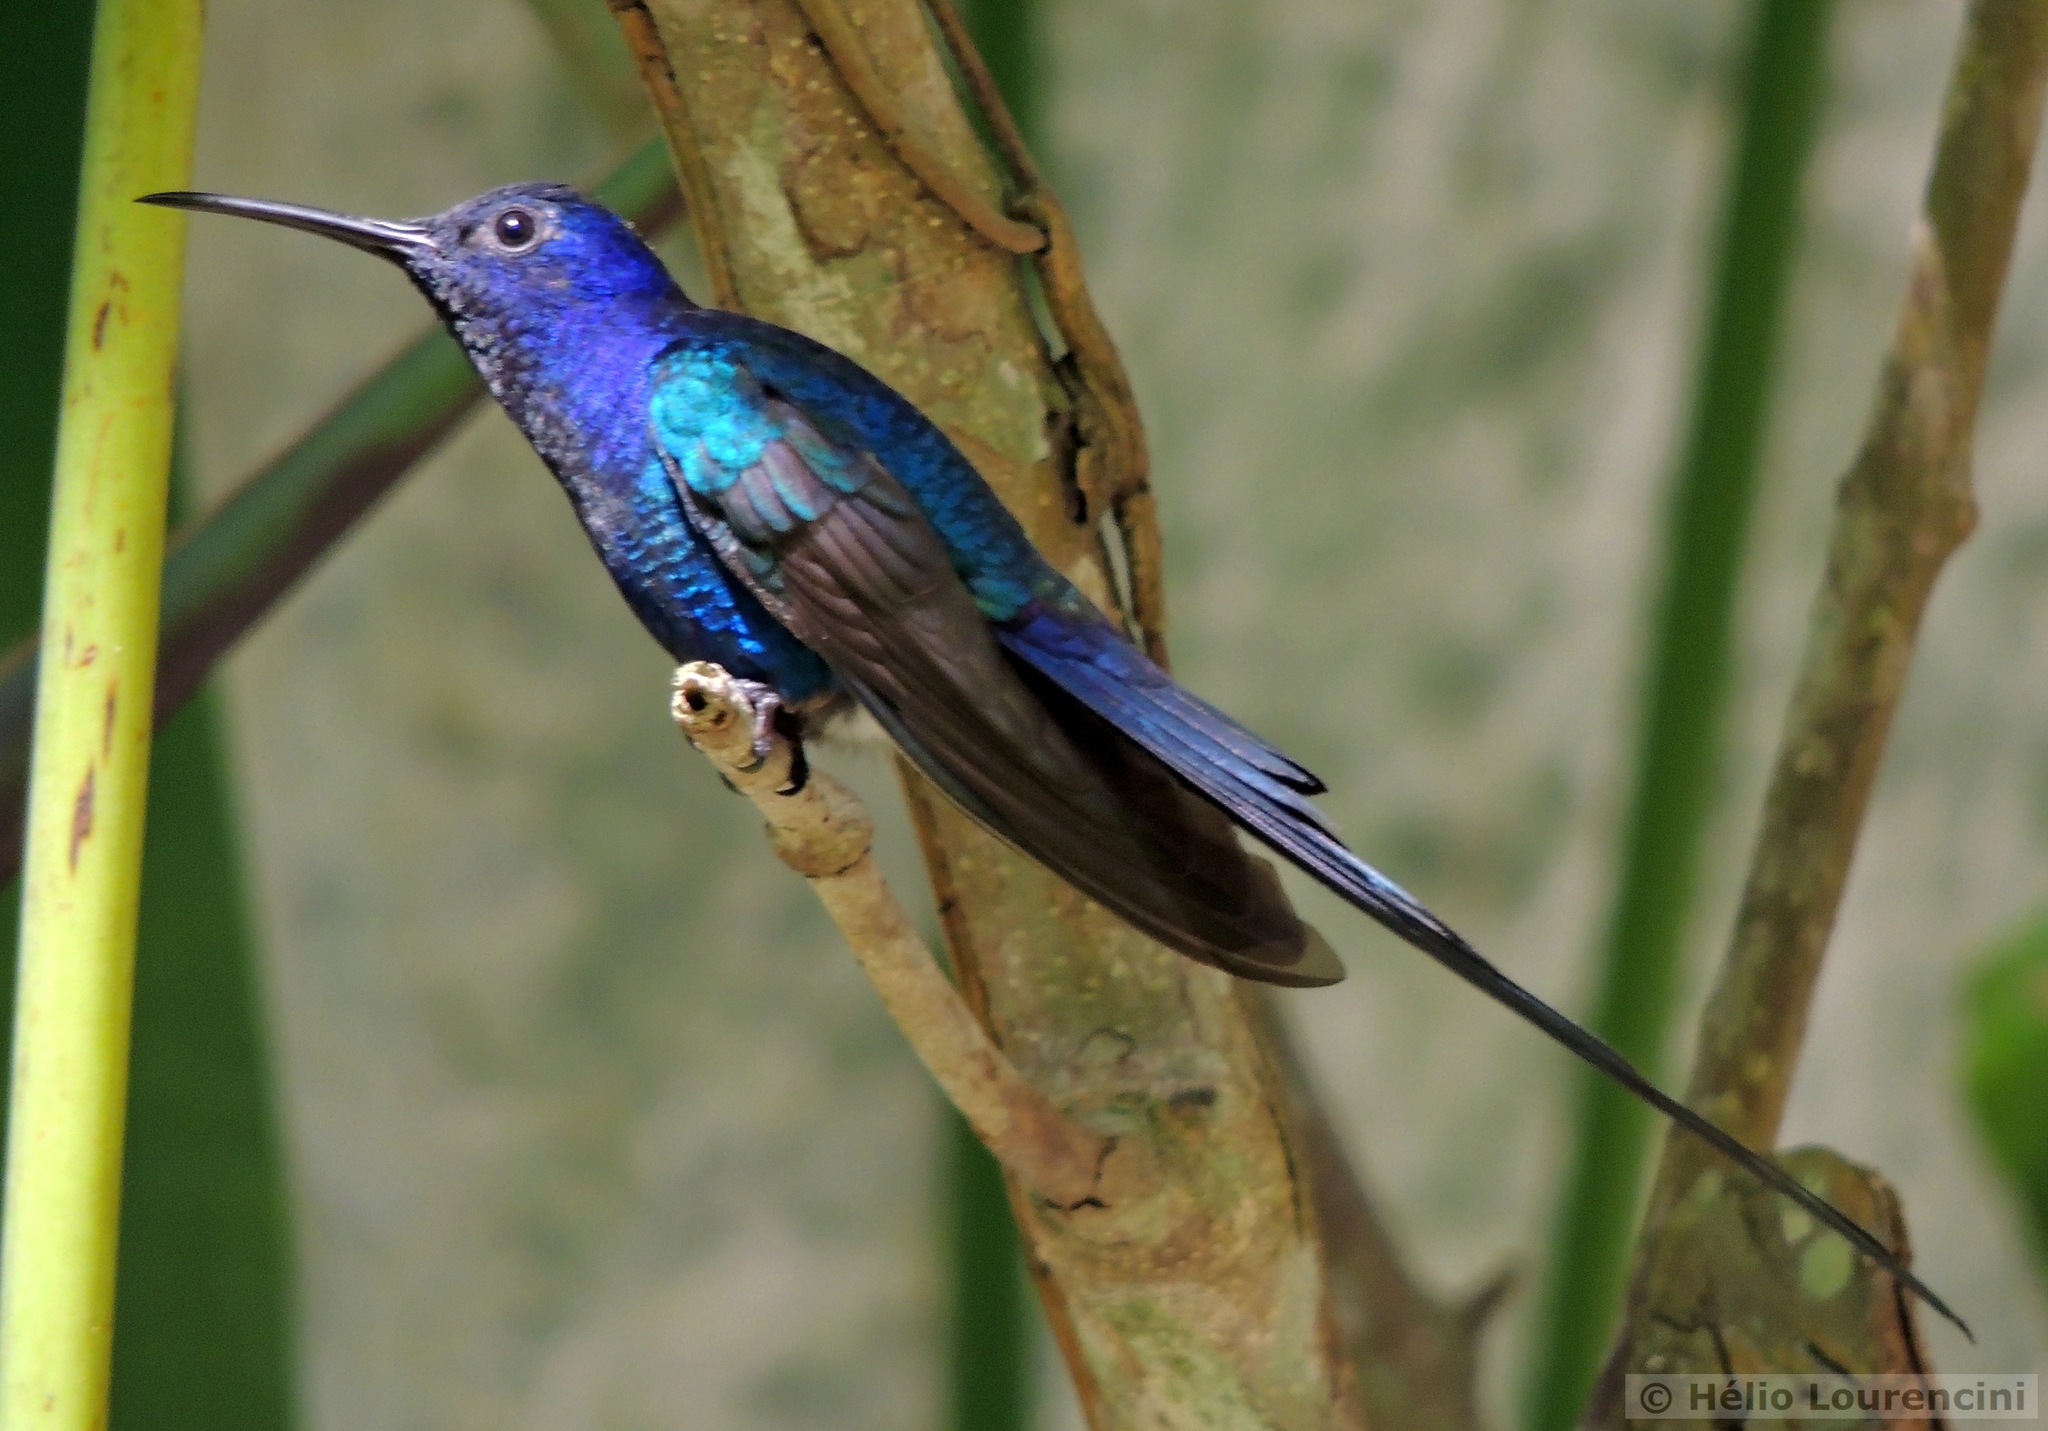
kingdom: Animalia
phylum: Chordata
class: Aves
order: Apodiformes
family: Trochilidae
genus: Eupetomena
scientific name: Eupetomena macroura
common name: Swallow-tailed hummingbird
